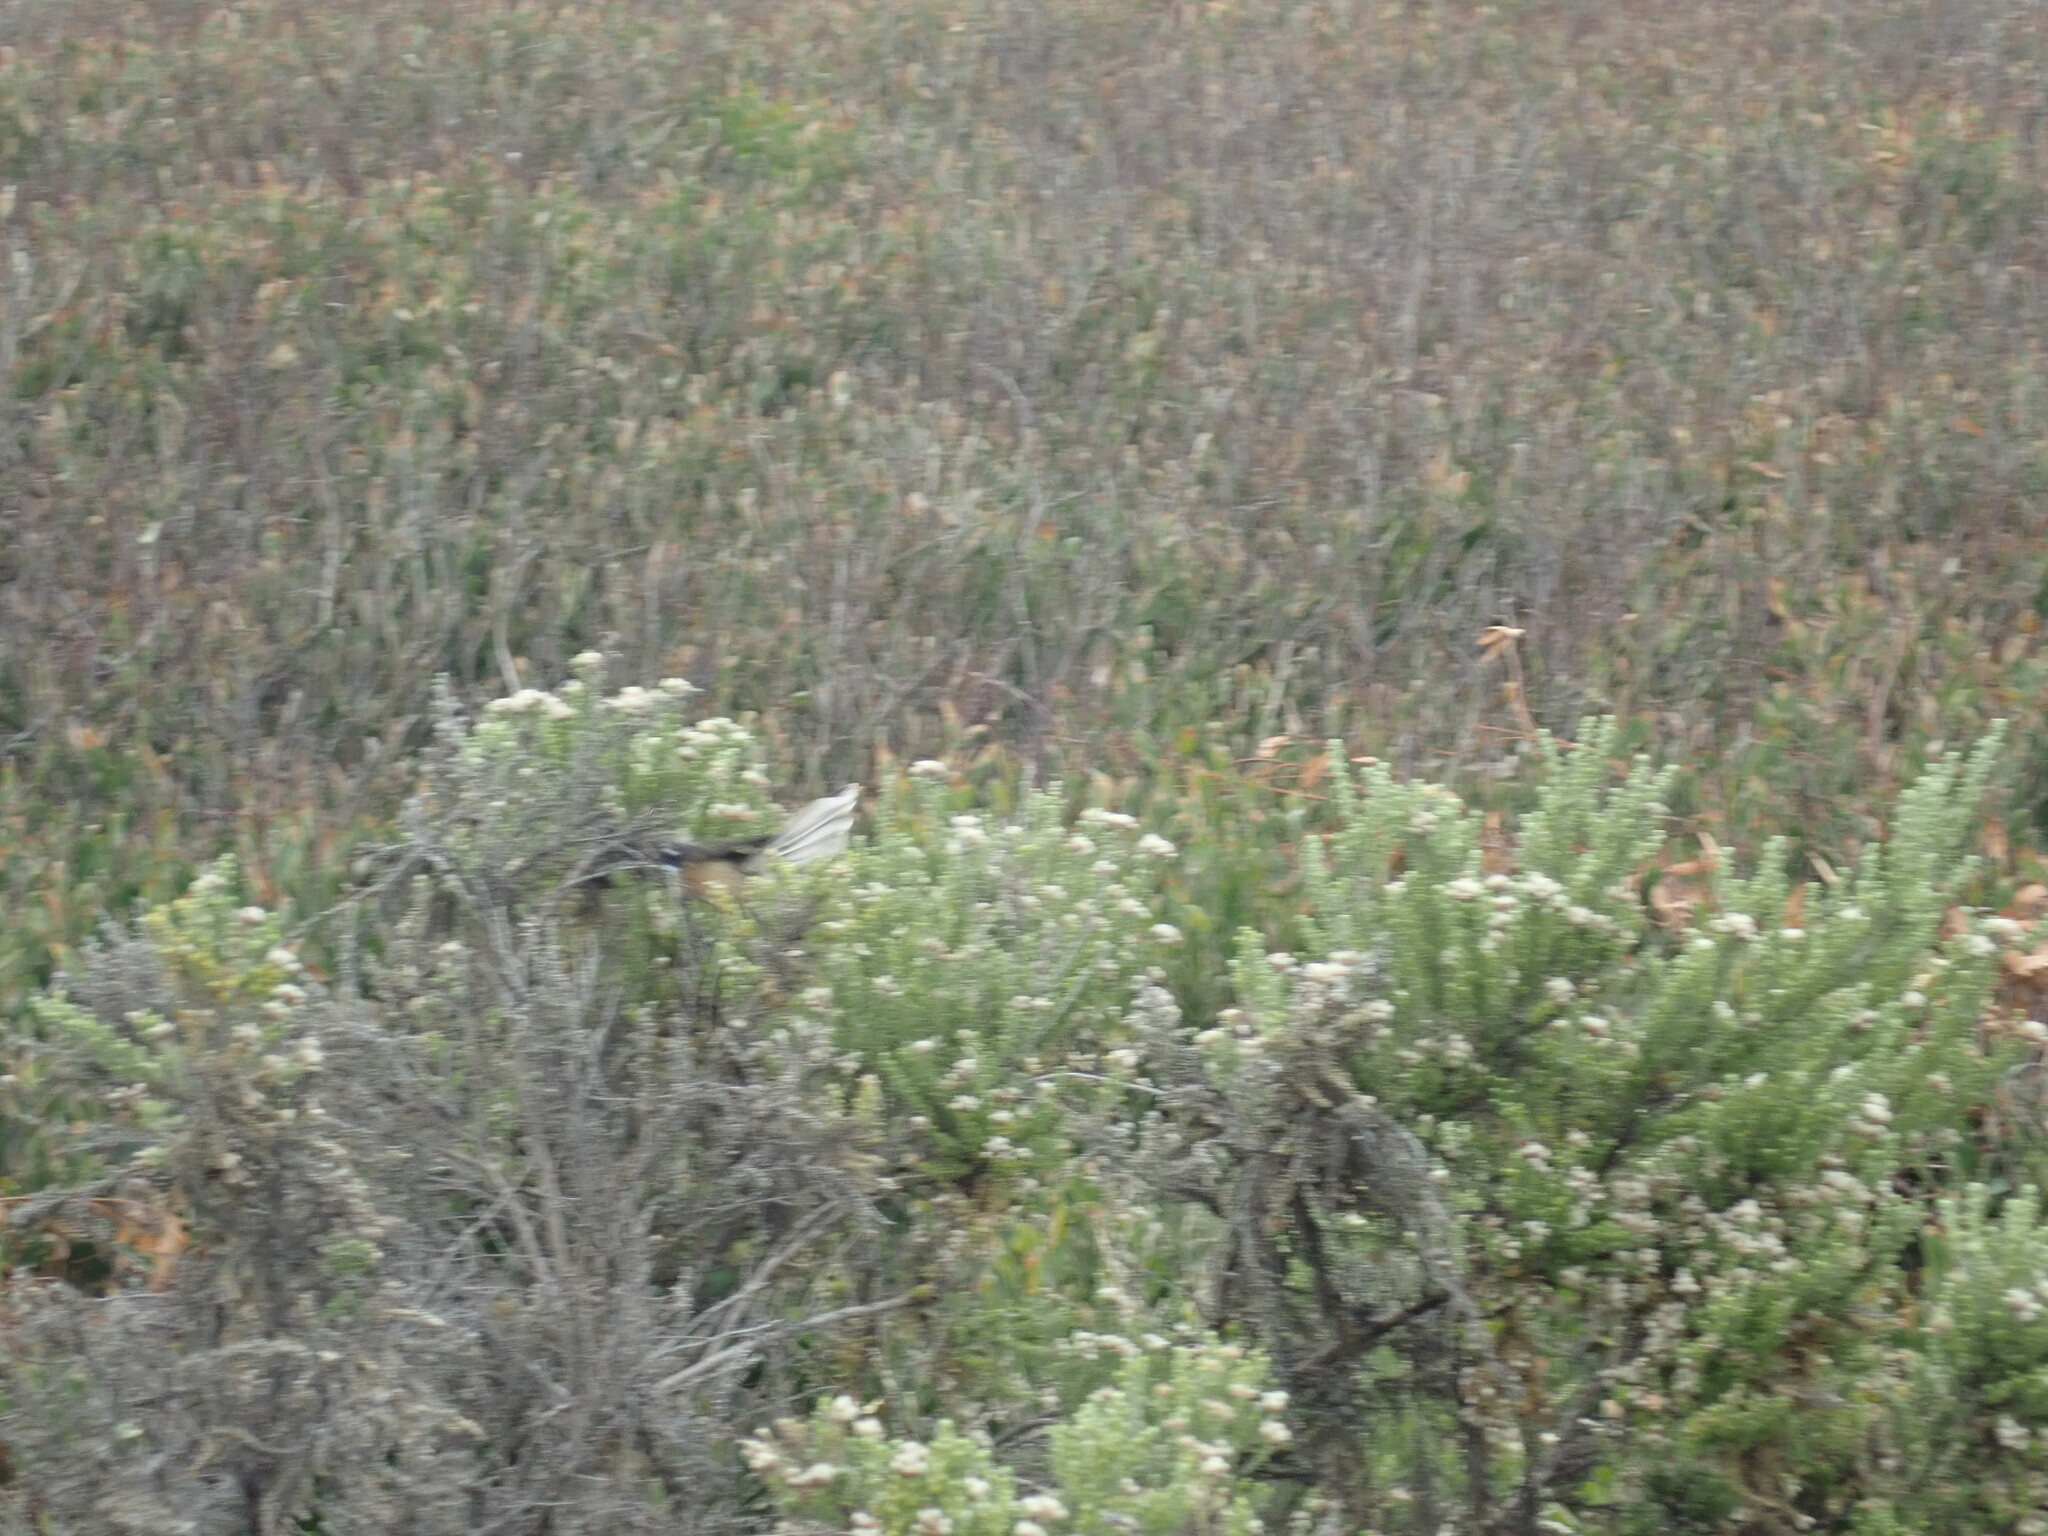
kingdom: Animalia
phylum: Chordata
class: Aves
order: Passeriformes
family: Rhipiduridae
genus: Rhipidura
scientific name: Rhipidura fuliginosa
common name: New zealand fantail
